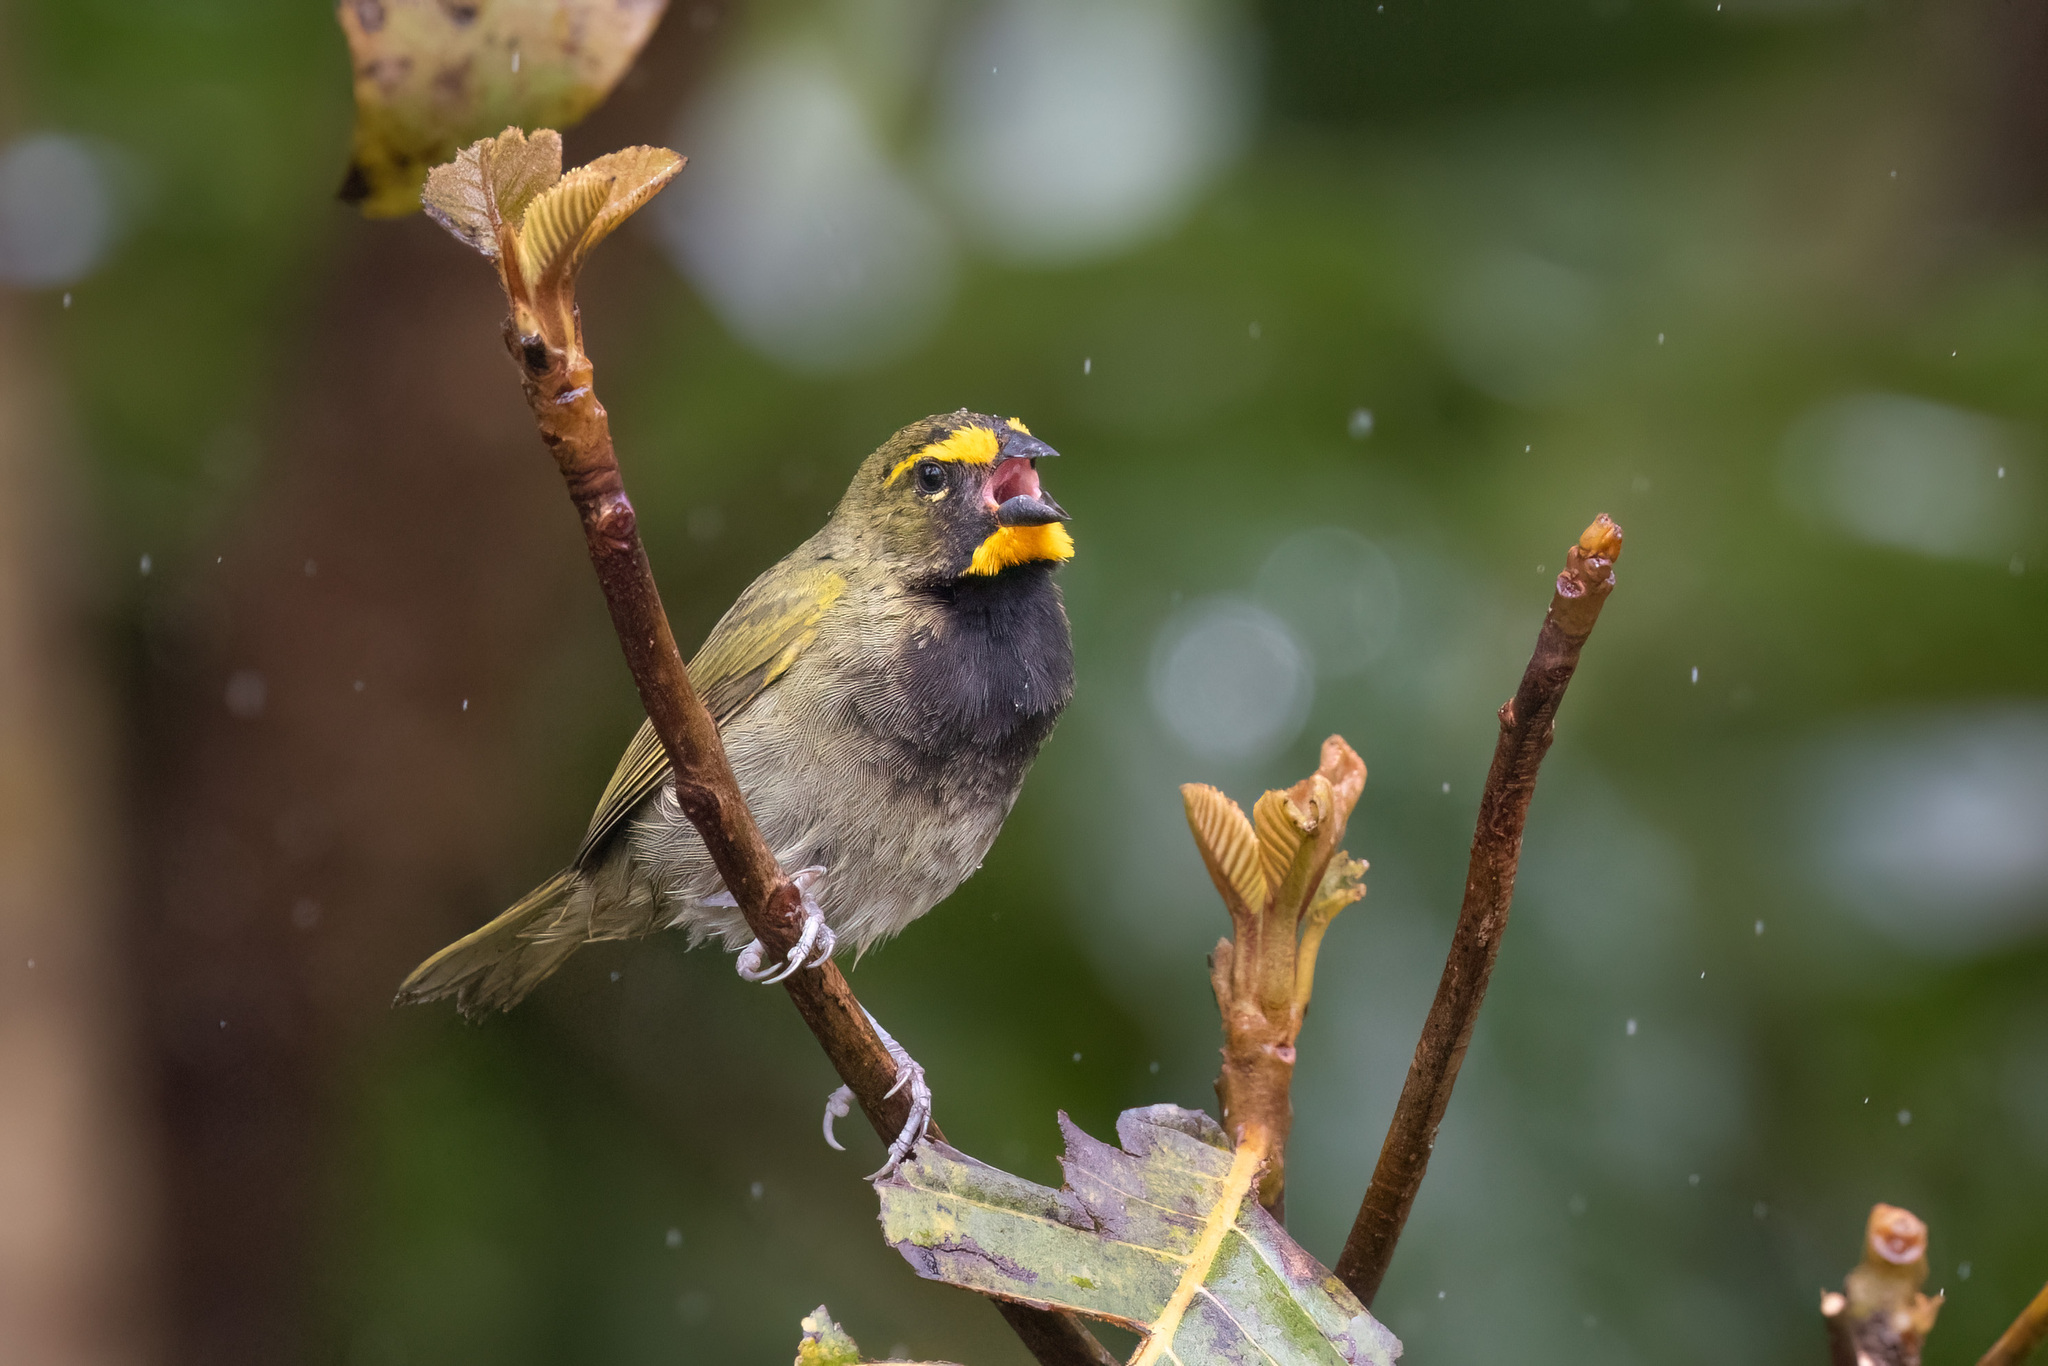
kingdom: Animalia
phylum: Chordata
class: Aves
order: Passeriformes
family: Thraupidae
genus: Tiaris
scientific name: Tiaris olivaceus
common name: Yellow-faced grassquit
